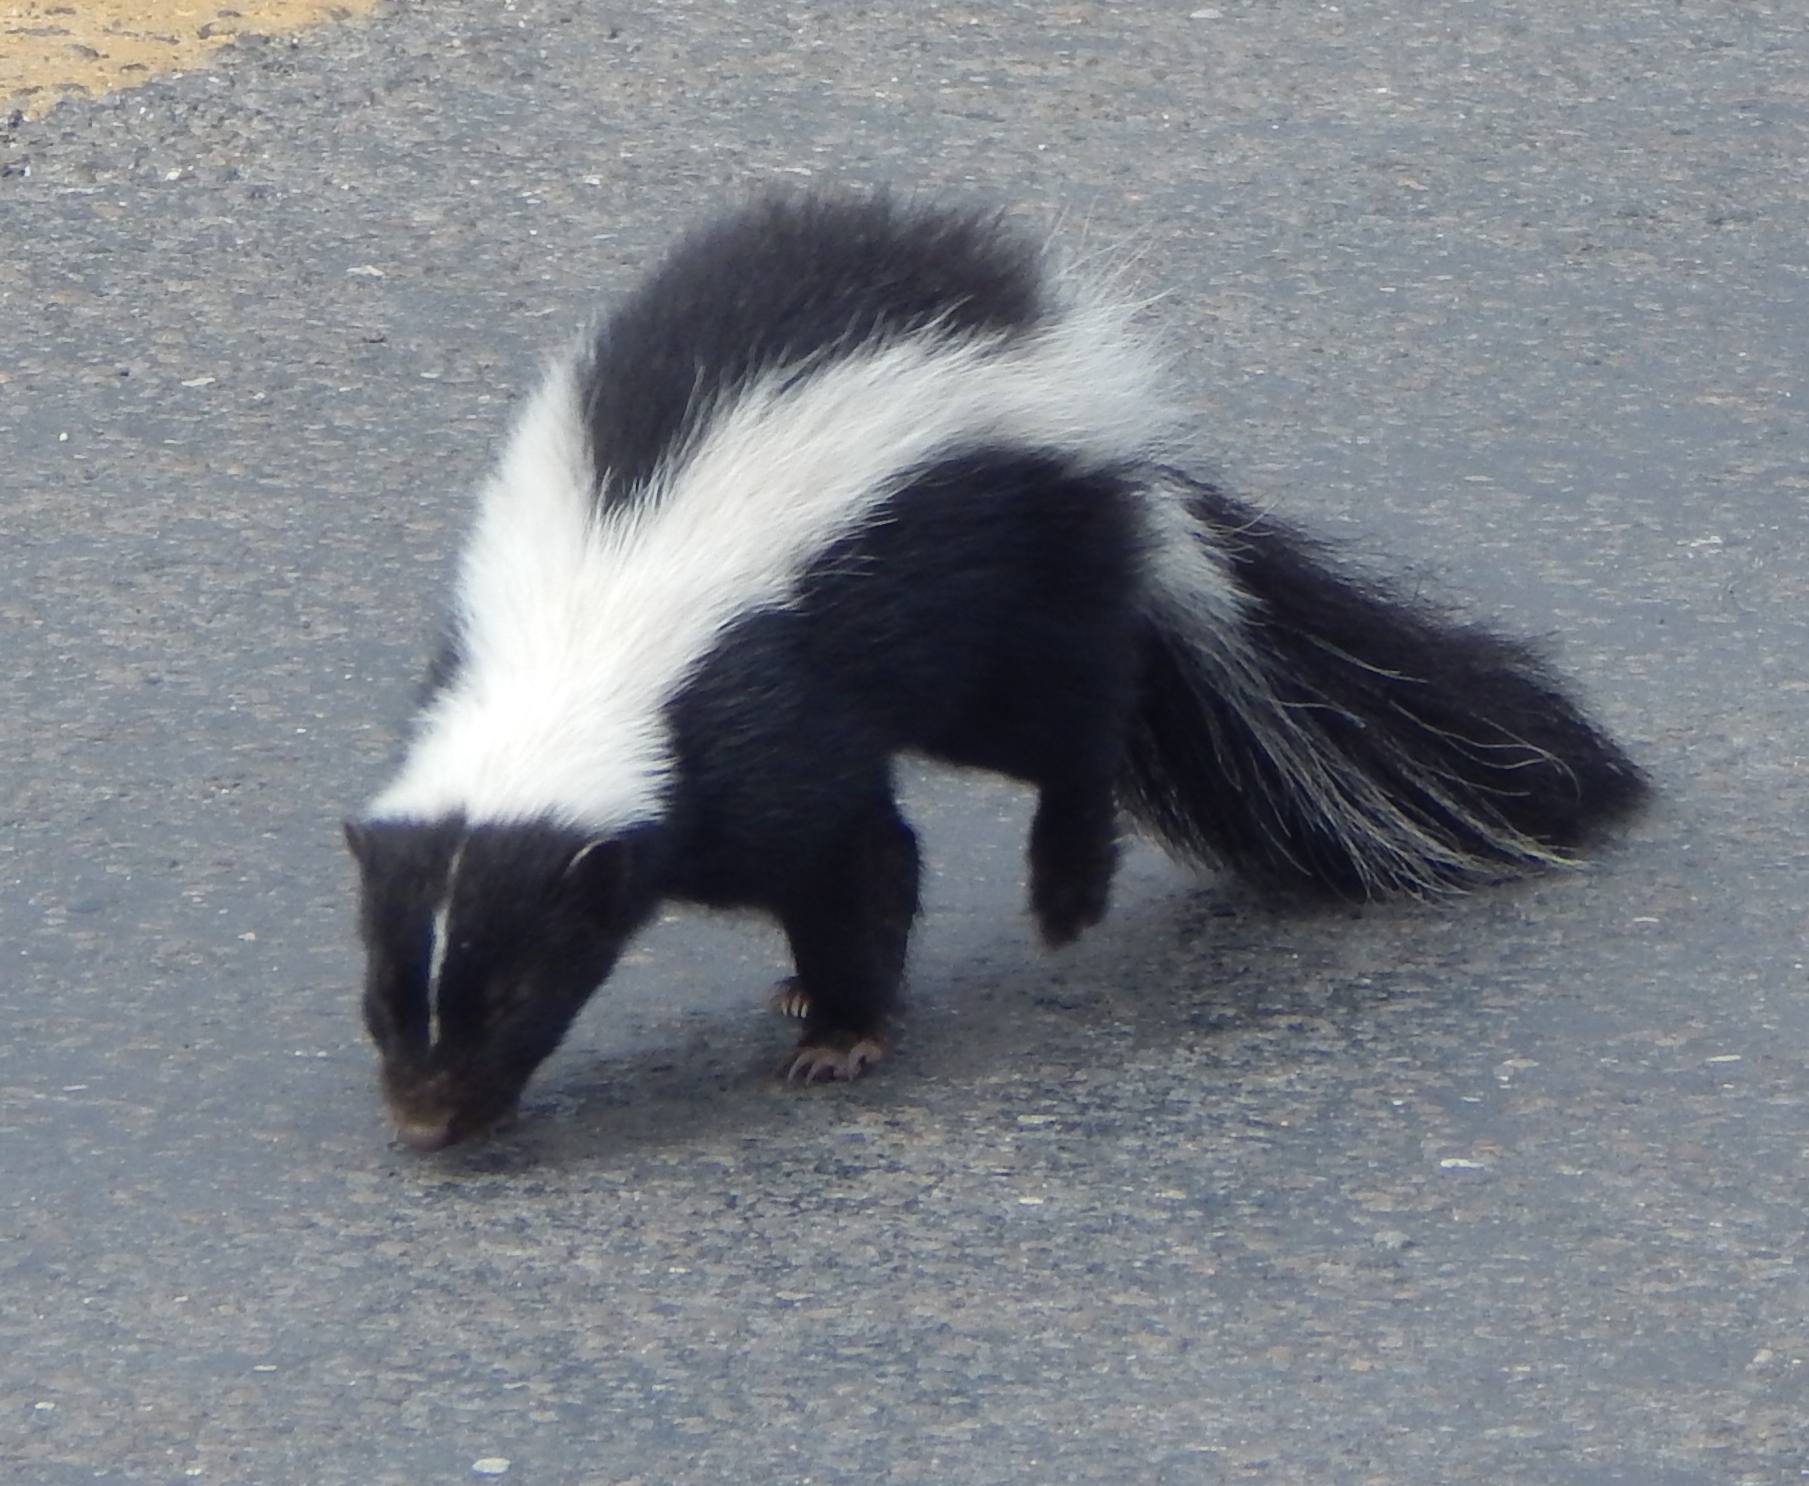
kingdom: Animalia
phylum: Chordata
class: Mammalia
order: Carnivora
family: Mephitidae
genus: Mephitis
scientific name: Mephitis mephitis
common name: Striped skunk
